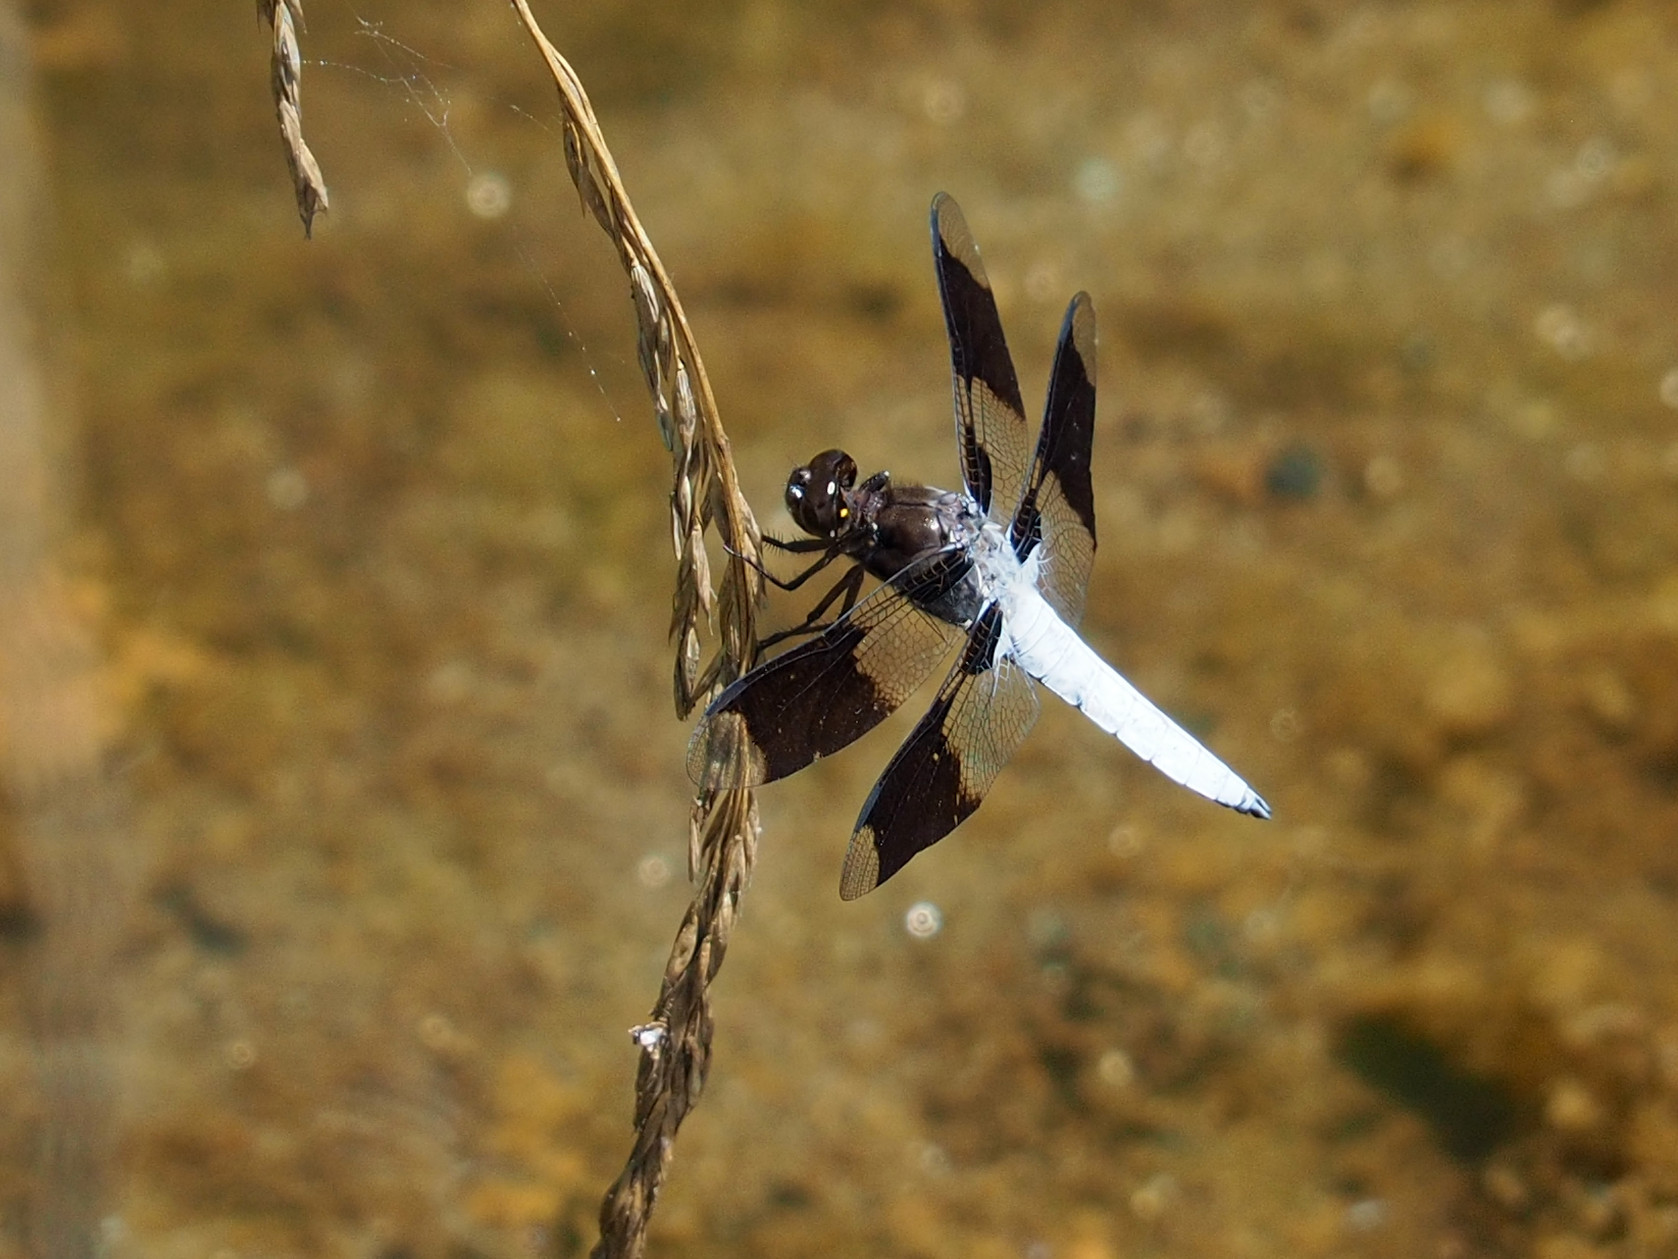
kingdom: Animalia
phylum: Arthropoda
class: Insecta
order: Odonata
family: Libellulidae
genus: Plathemis
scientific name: Plathemis lydia
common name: Common whitetail
